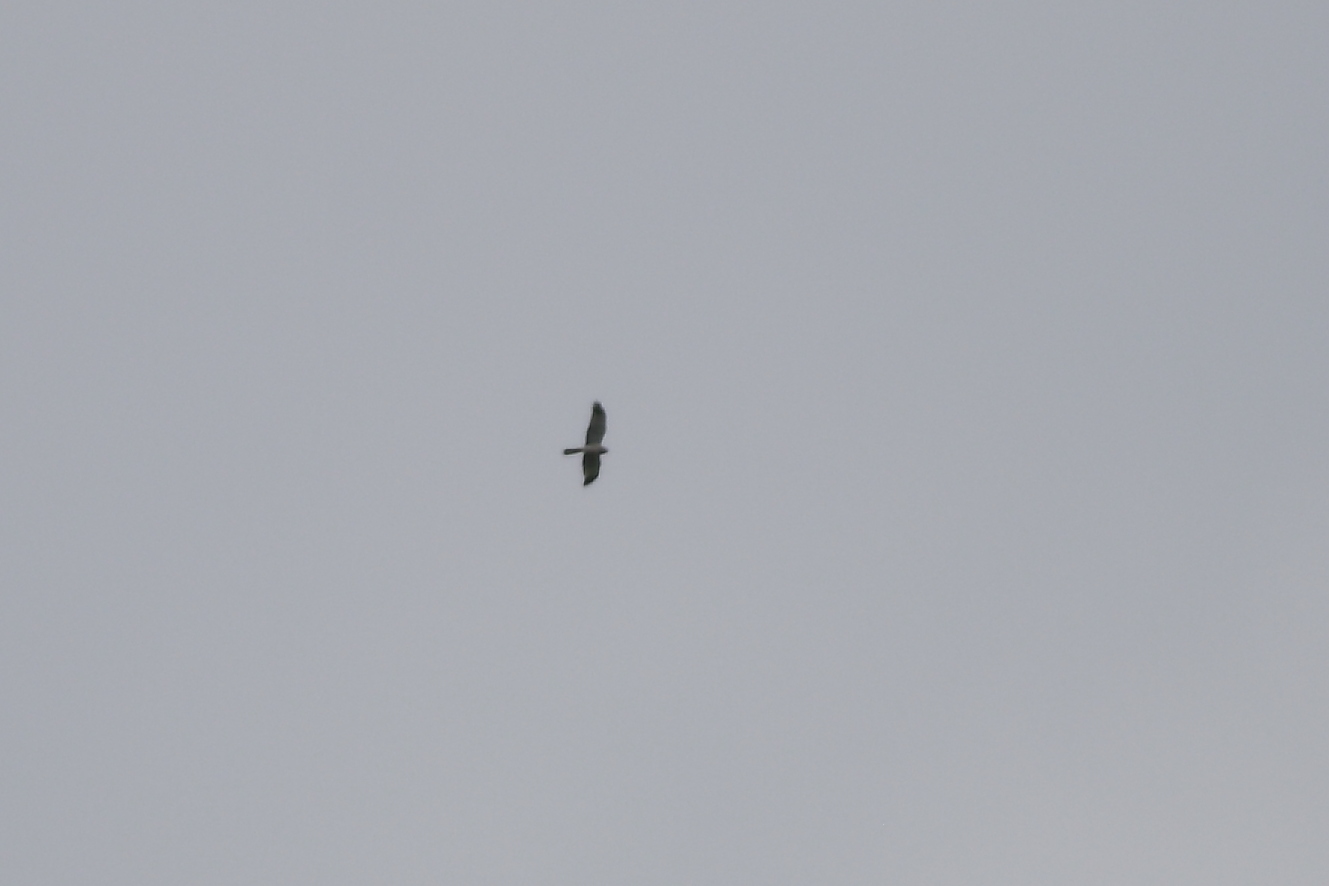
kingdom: Animalia
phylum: Chordata
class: Aves
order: Accipitriformes
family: Accipitridae
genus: Circus
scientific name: Circus cyaneus
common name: Hen harrier
